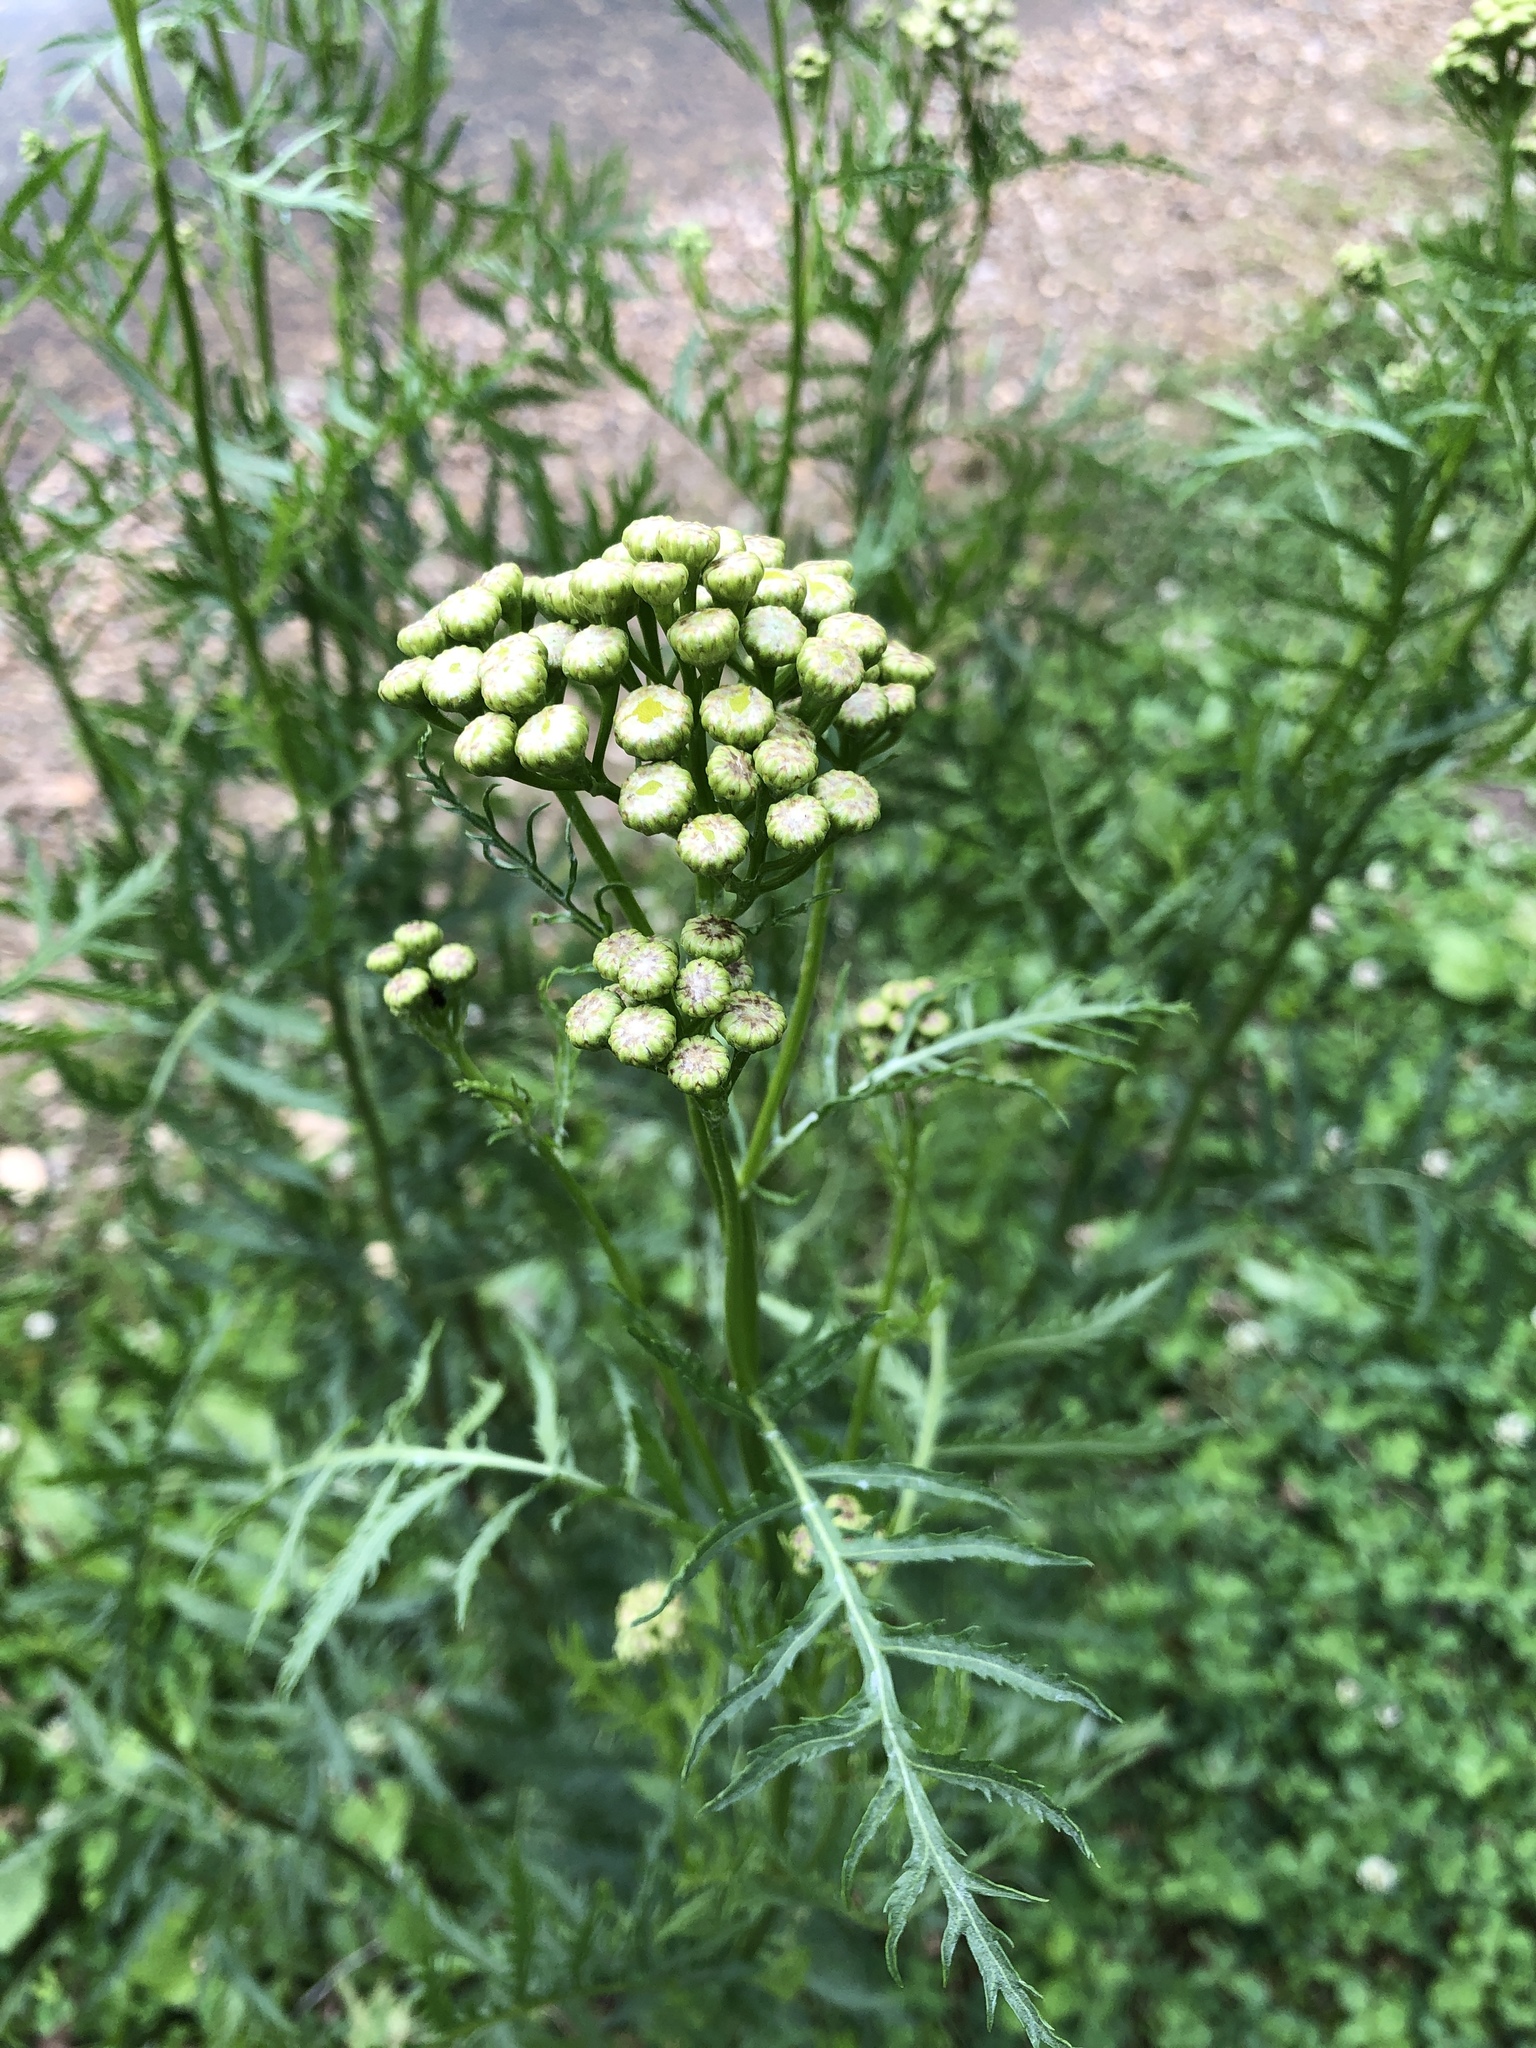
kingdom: Plantae
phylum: Tracheophyta
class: Magnoliopsida
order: Asterales
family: Asteraceae
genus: Tanacetum
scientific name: Tanacetum vulgare
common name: Common tansy
